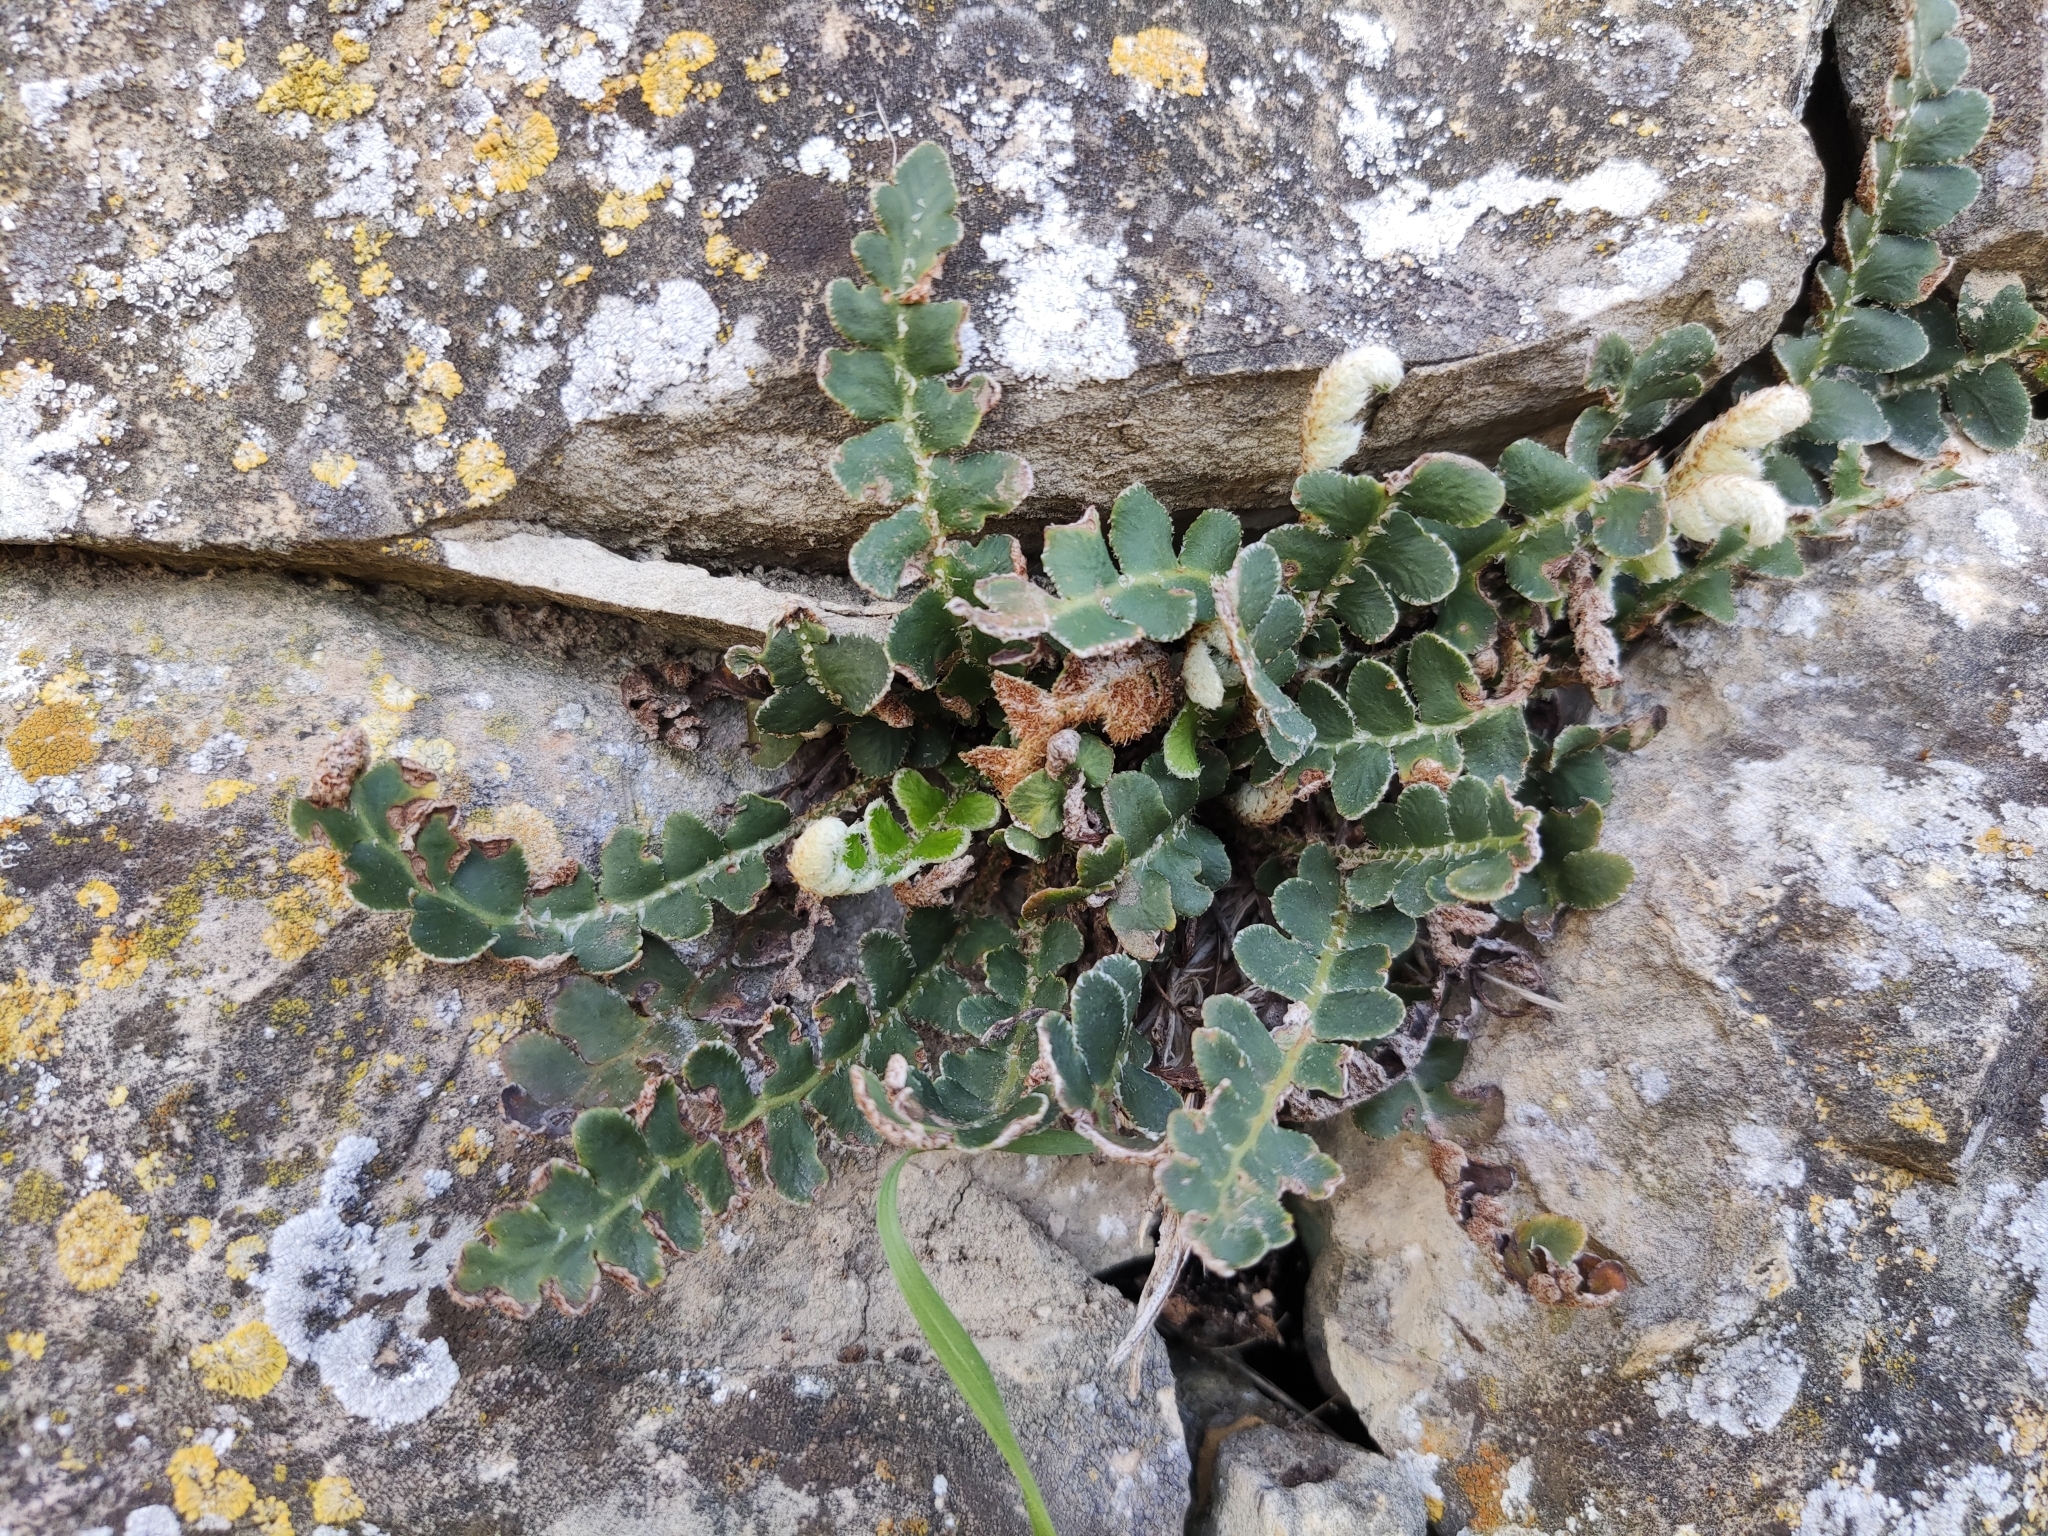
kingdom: Plantae
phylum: Tracheophyta
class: Polypodiopsida
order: Polypodiales
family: Aspleniaceae
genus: Asplenium
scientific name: Asplenium ceterach
